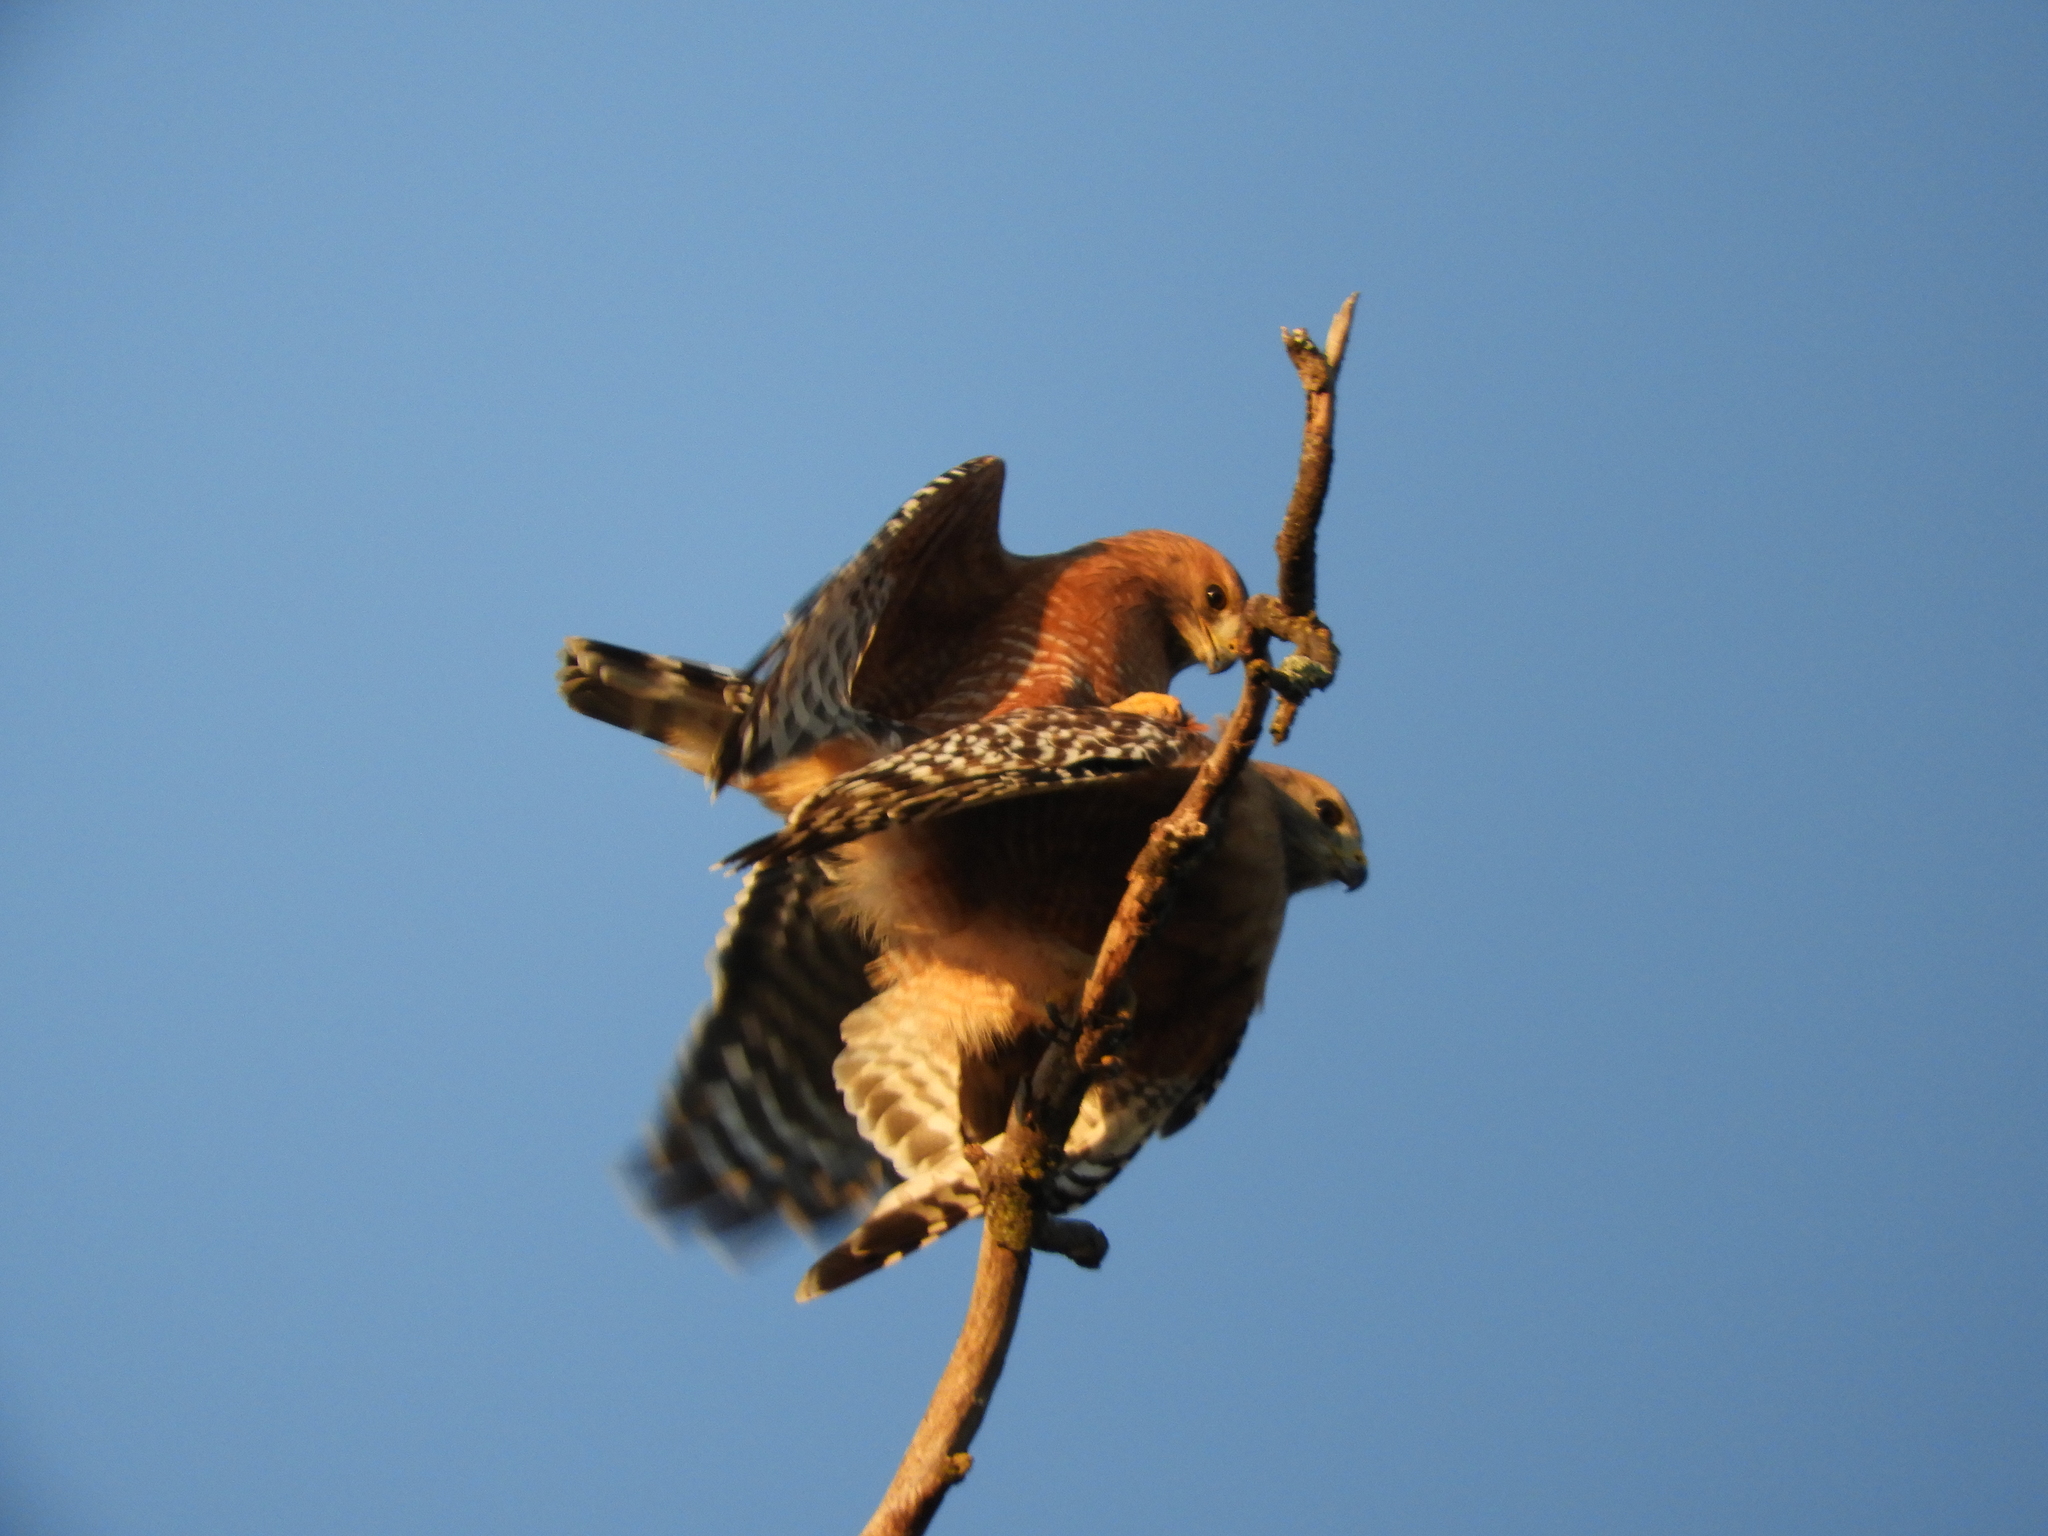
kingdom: Animalia
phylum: Chordata
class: Aves
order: Accipitriformes
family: Accipitridae
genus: Buteo
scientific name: Buteo lineatus
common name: Red-shouldered hawk
